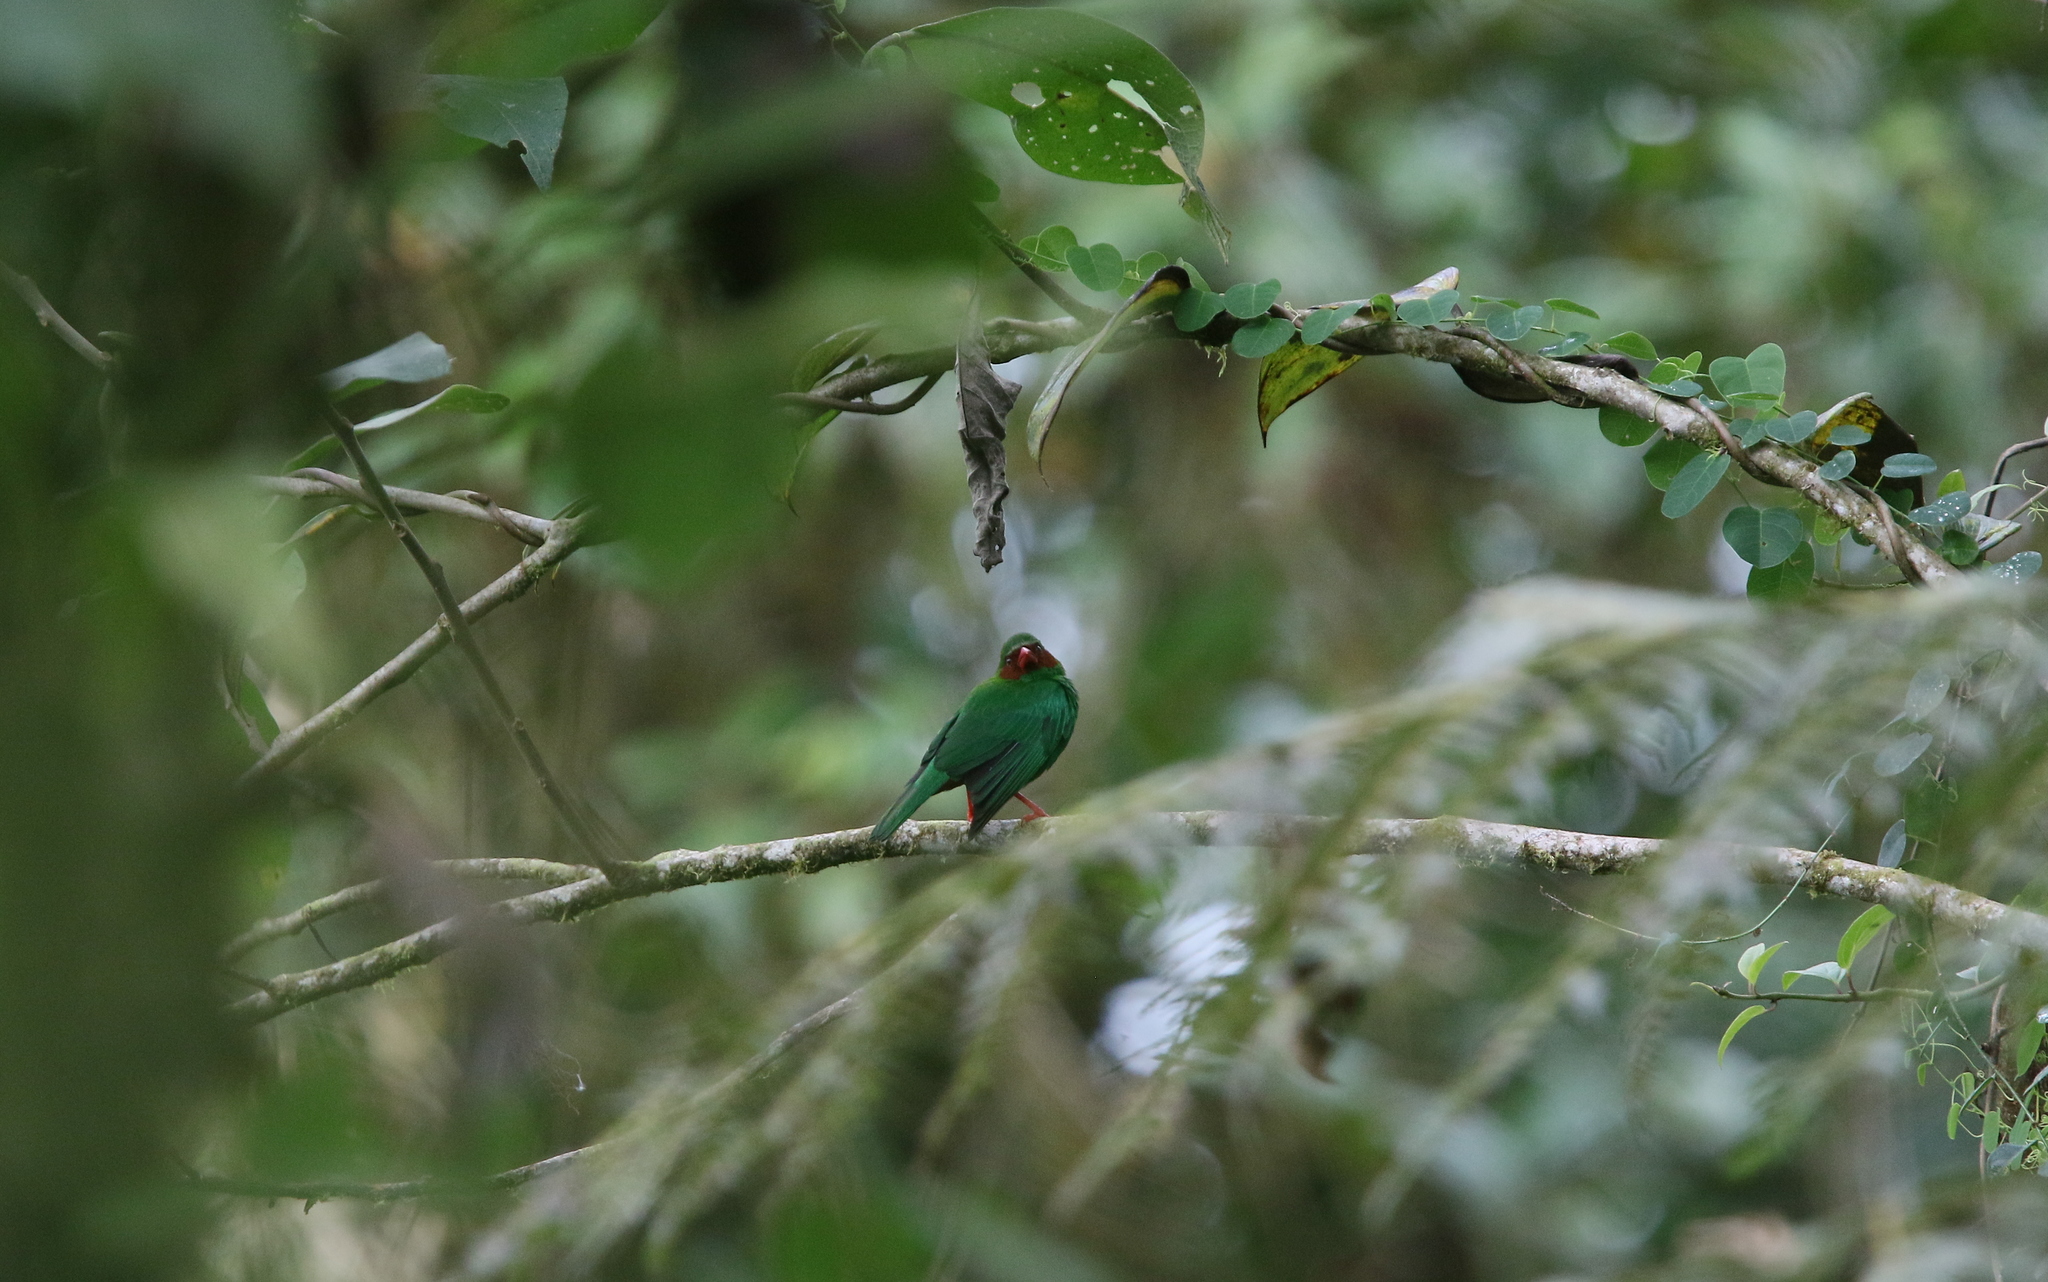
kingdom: Animalia
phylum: Chordata
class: Aves
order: Passeriformes
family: Thraupidae
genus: Chlorornis
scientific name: Chlorornis riefferii
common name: Grass-green tanager
